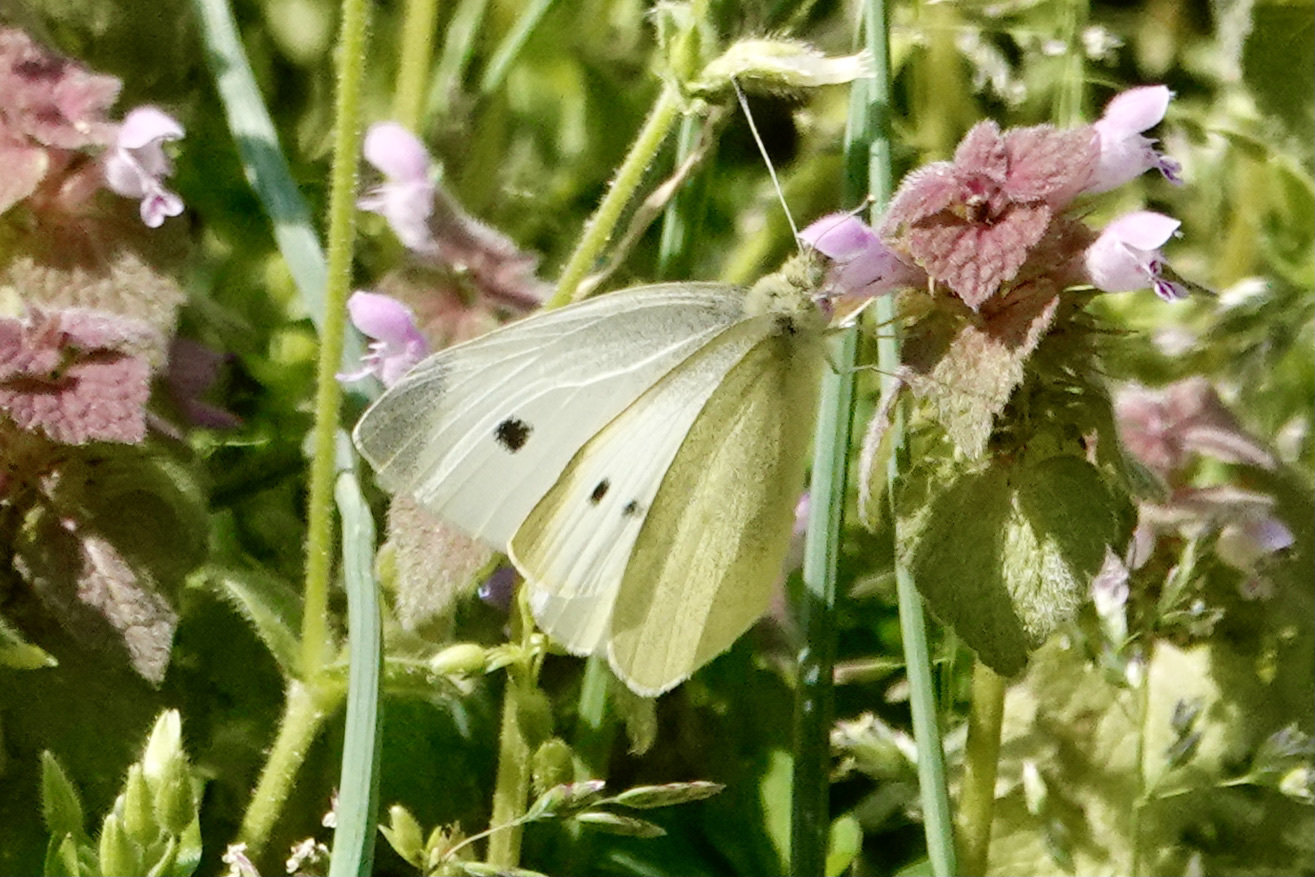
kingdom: Animalia
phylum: Arthropoda
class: Insecta
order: Lepidoptera
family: Pieridae
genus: Pieris
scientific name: Pieris rapae
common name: Small white
